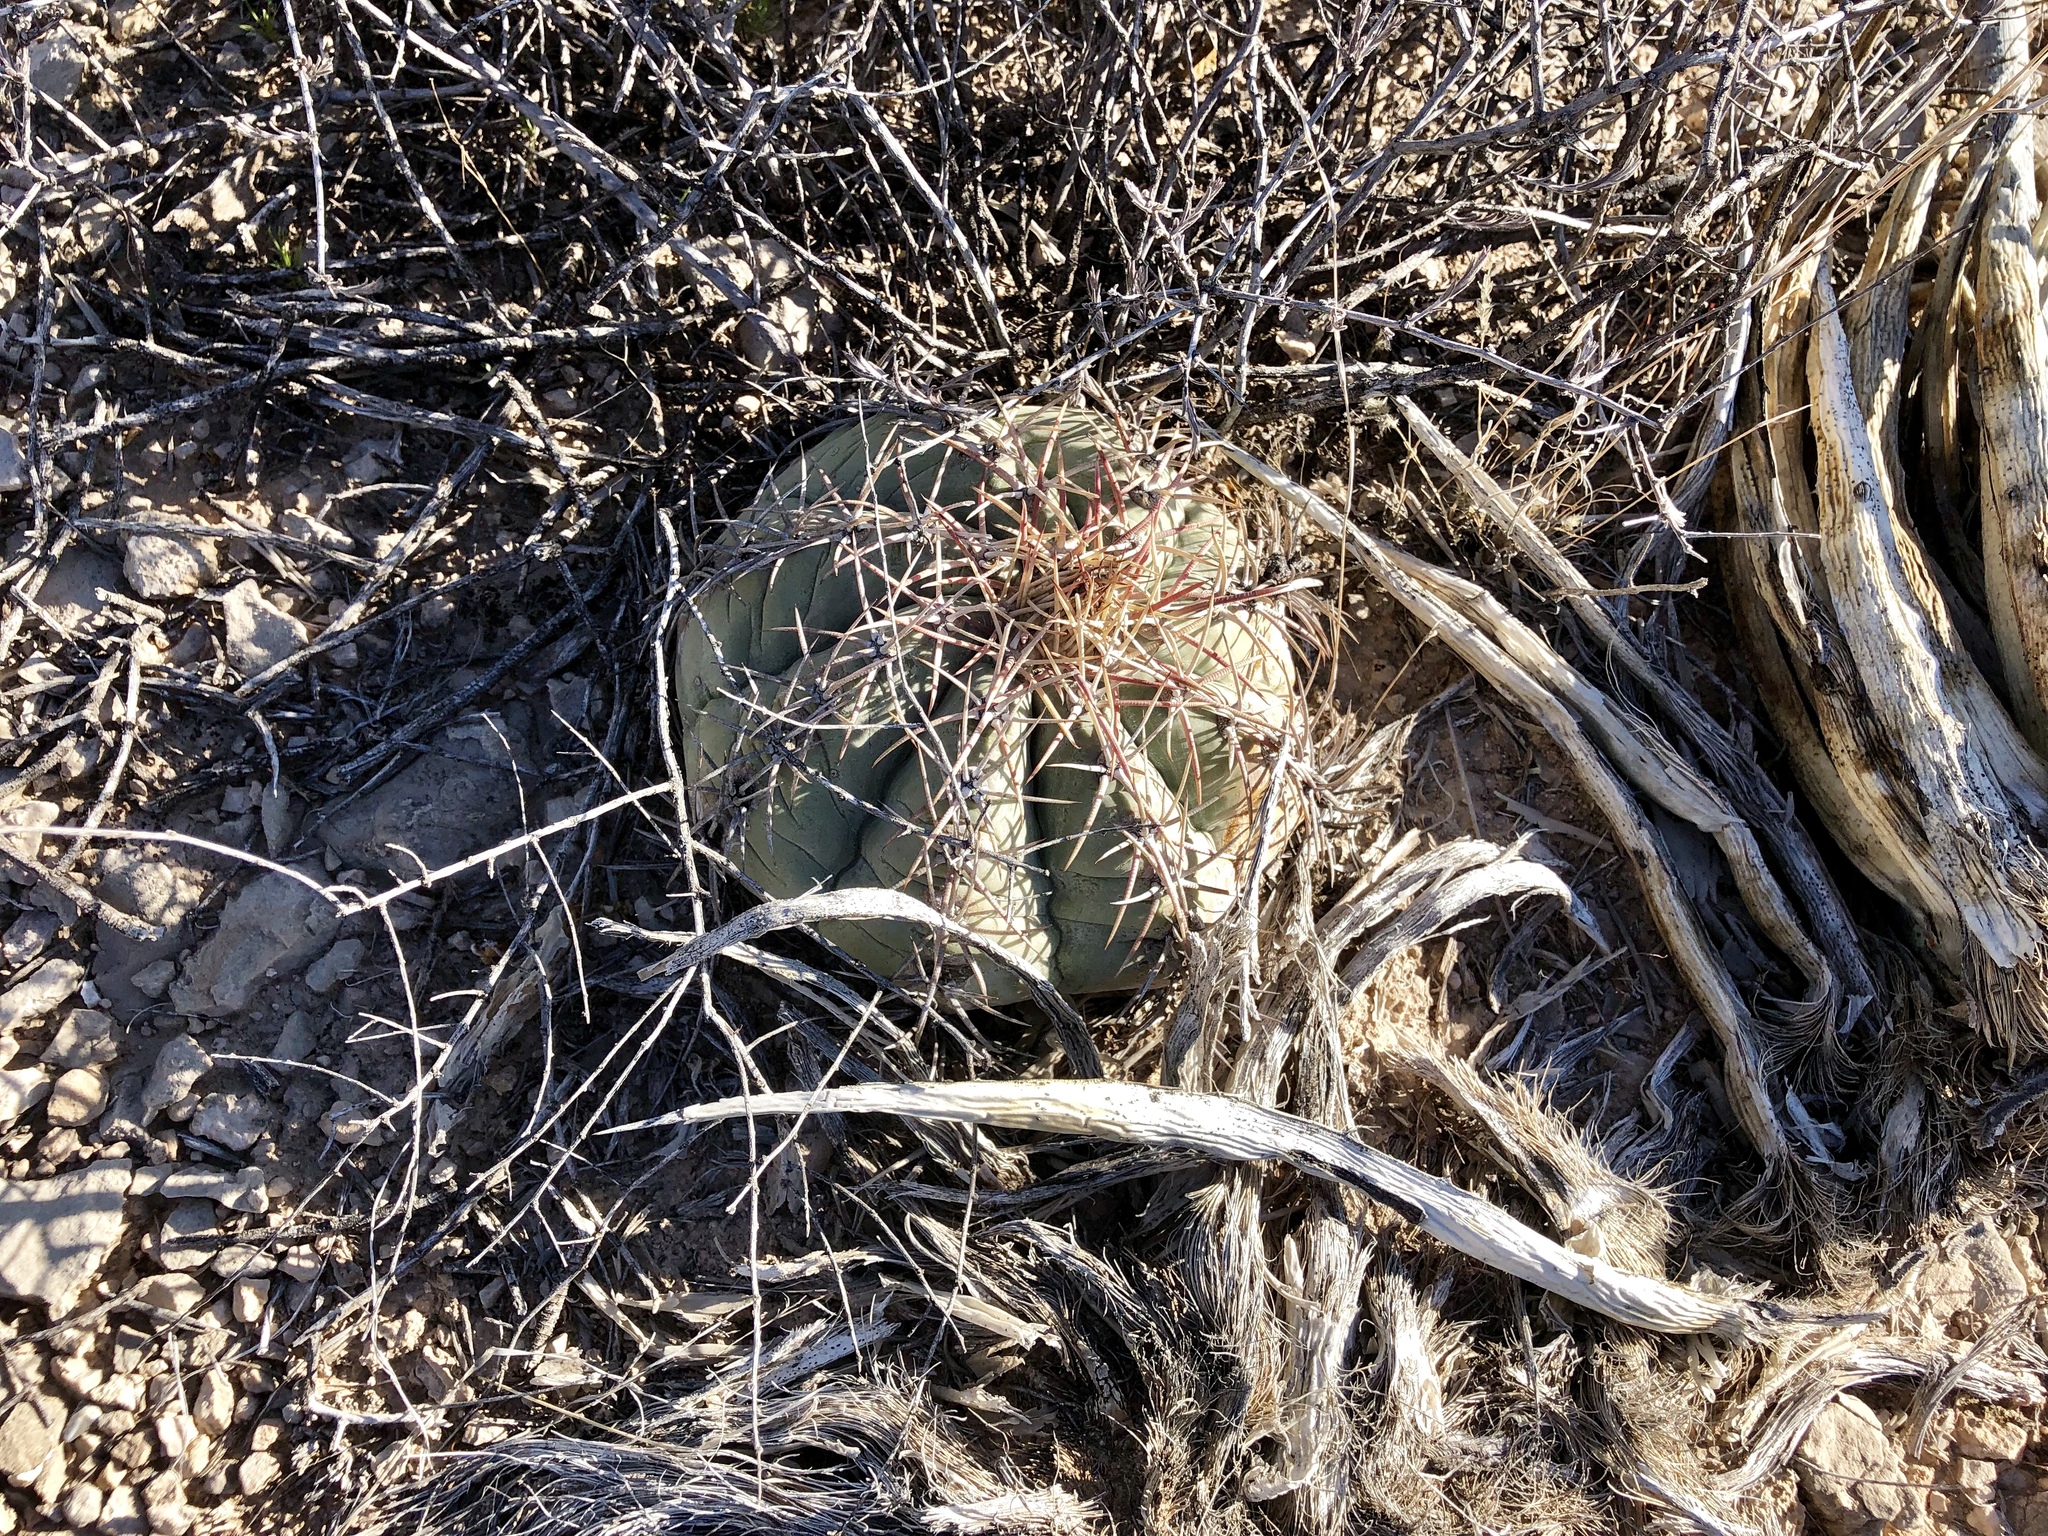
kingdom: Plantae
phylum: Tracheophyta
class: Magnoliopsida
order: Caryophyllales
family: Cactaceae
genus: Echinocactus
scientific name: Echinocactus horizonthalonius
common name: Devilshead
